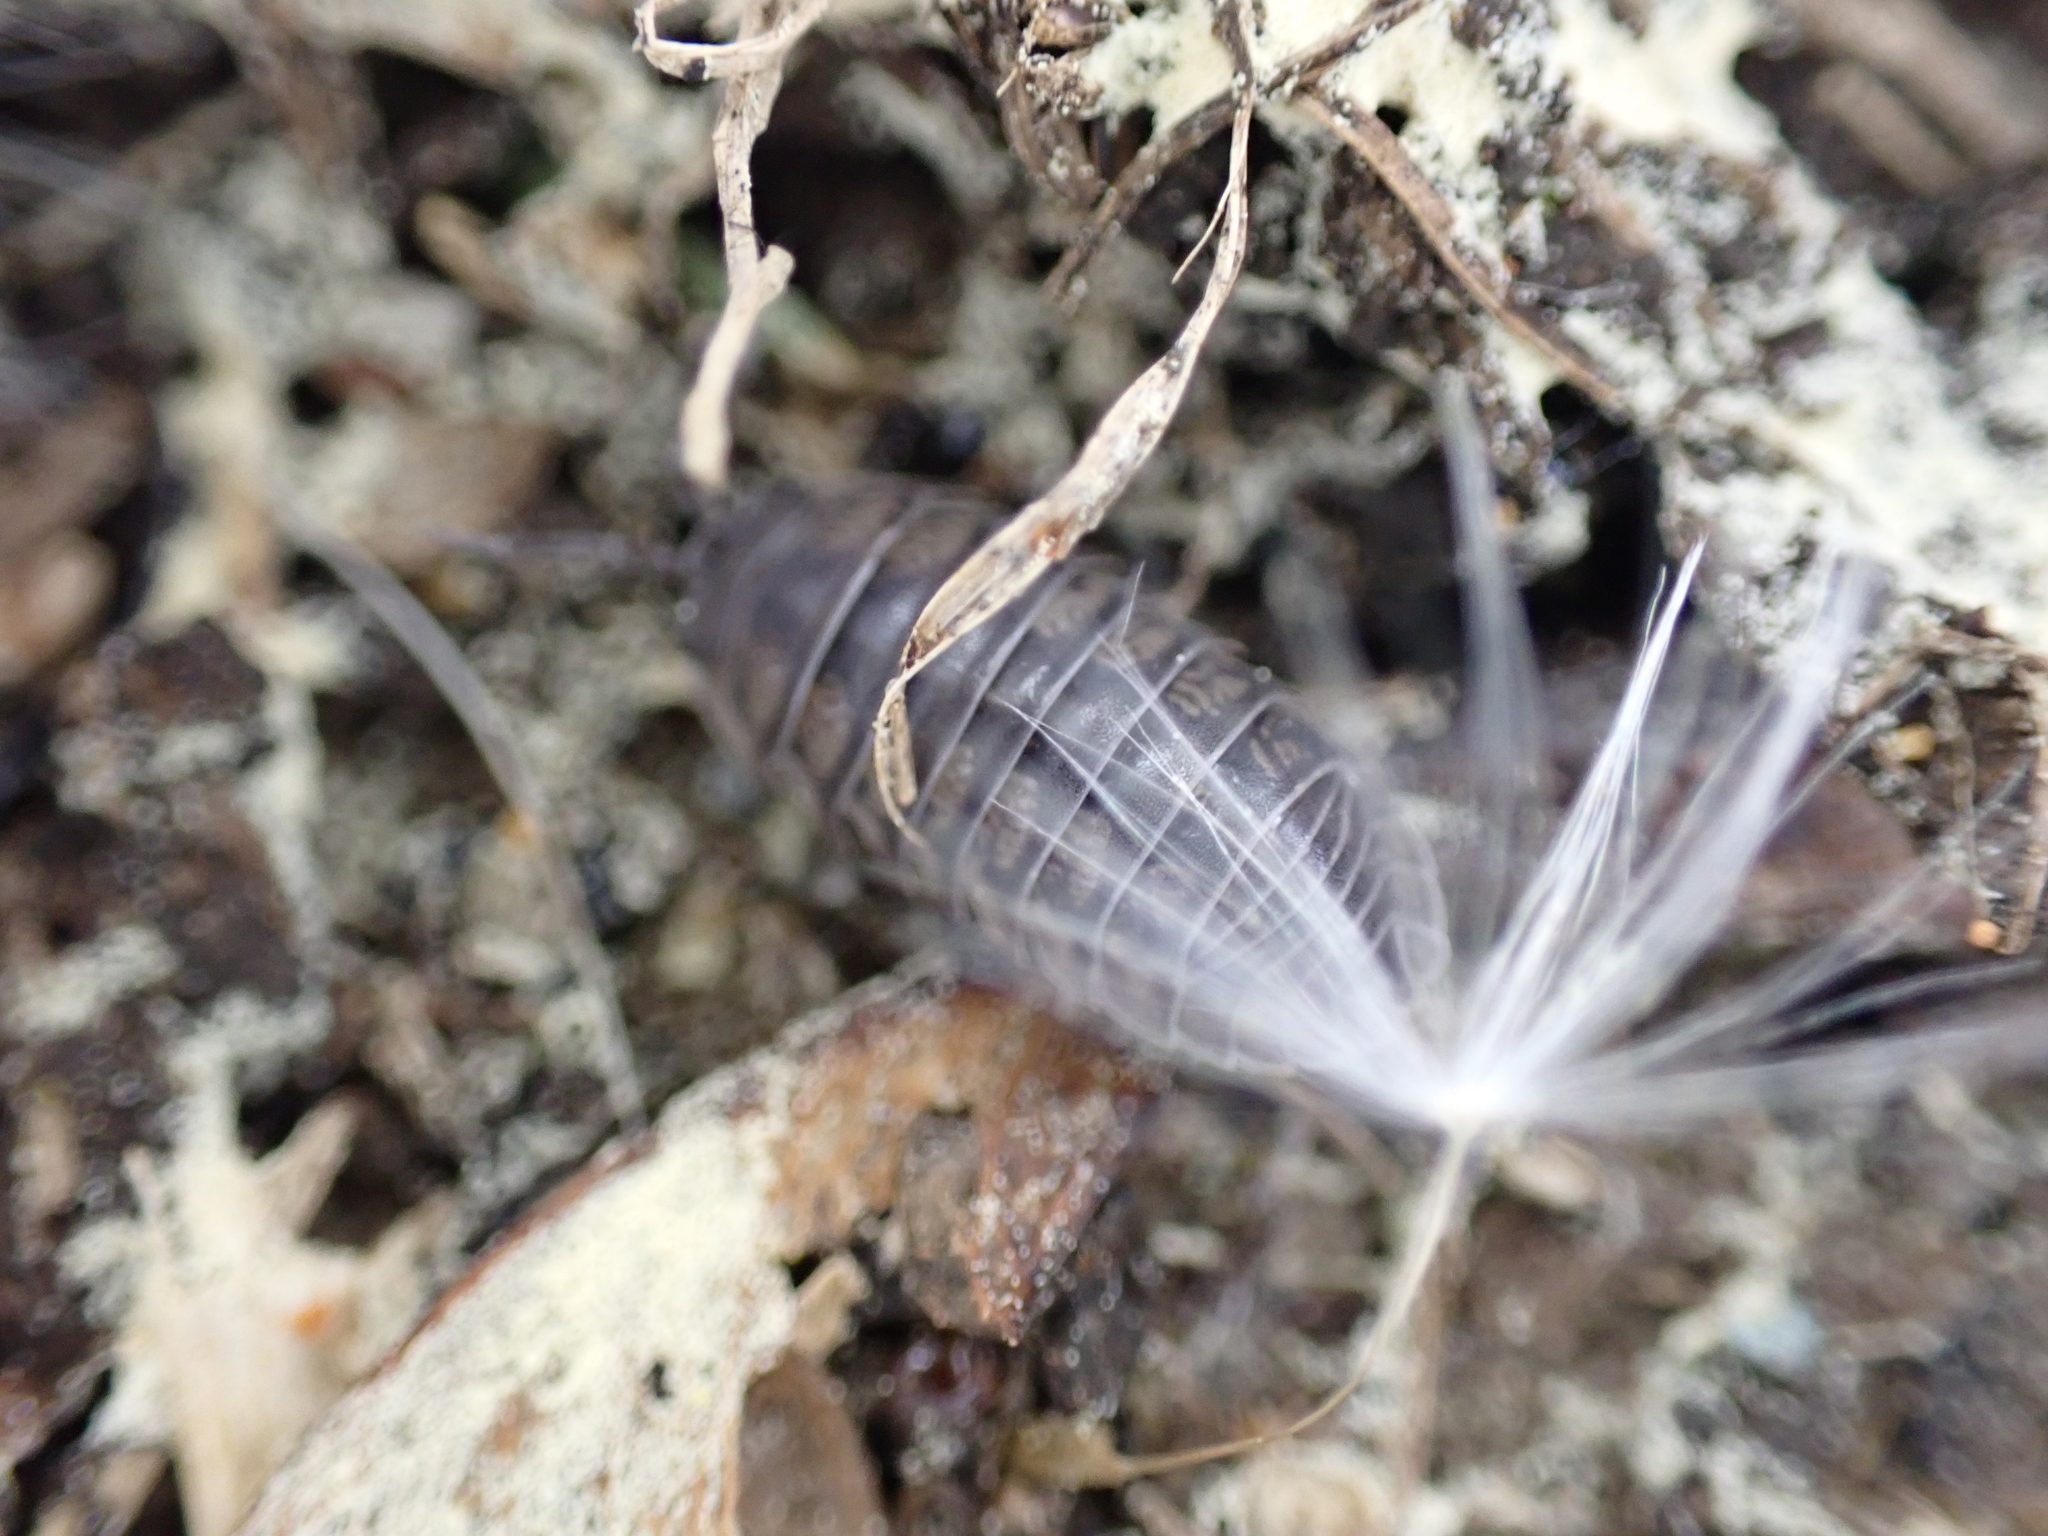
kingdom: Animalia
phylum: Arthropoda
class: Malacostraca
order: Isopoda
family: Armadillidiidae
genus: Armadillidium
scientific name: Armadillidium nasatum
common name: Isopod
